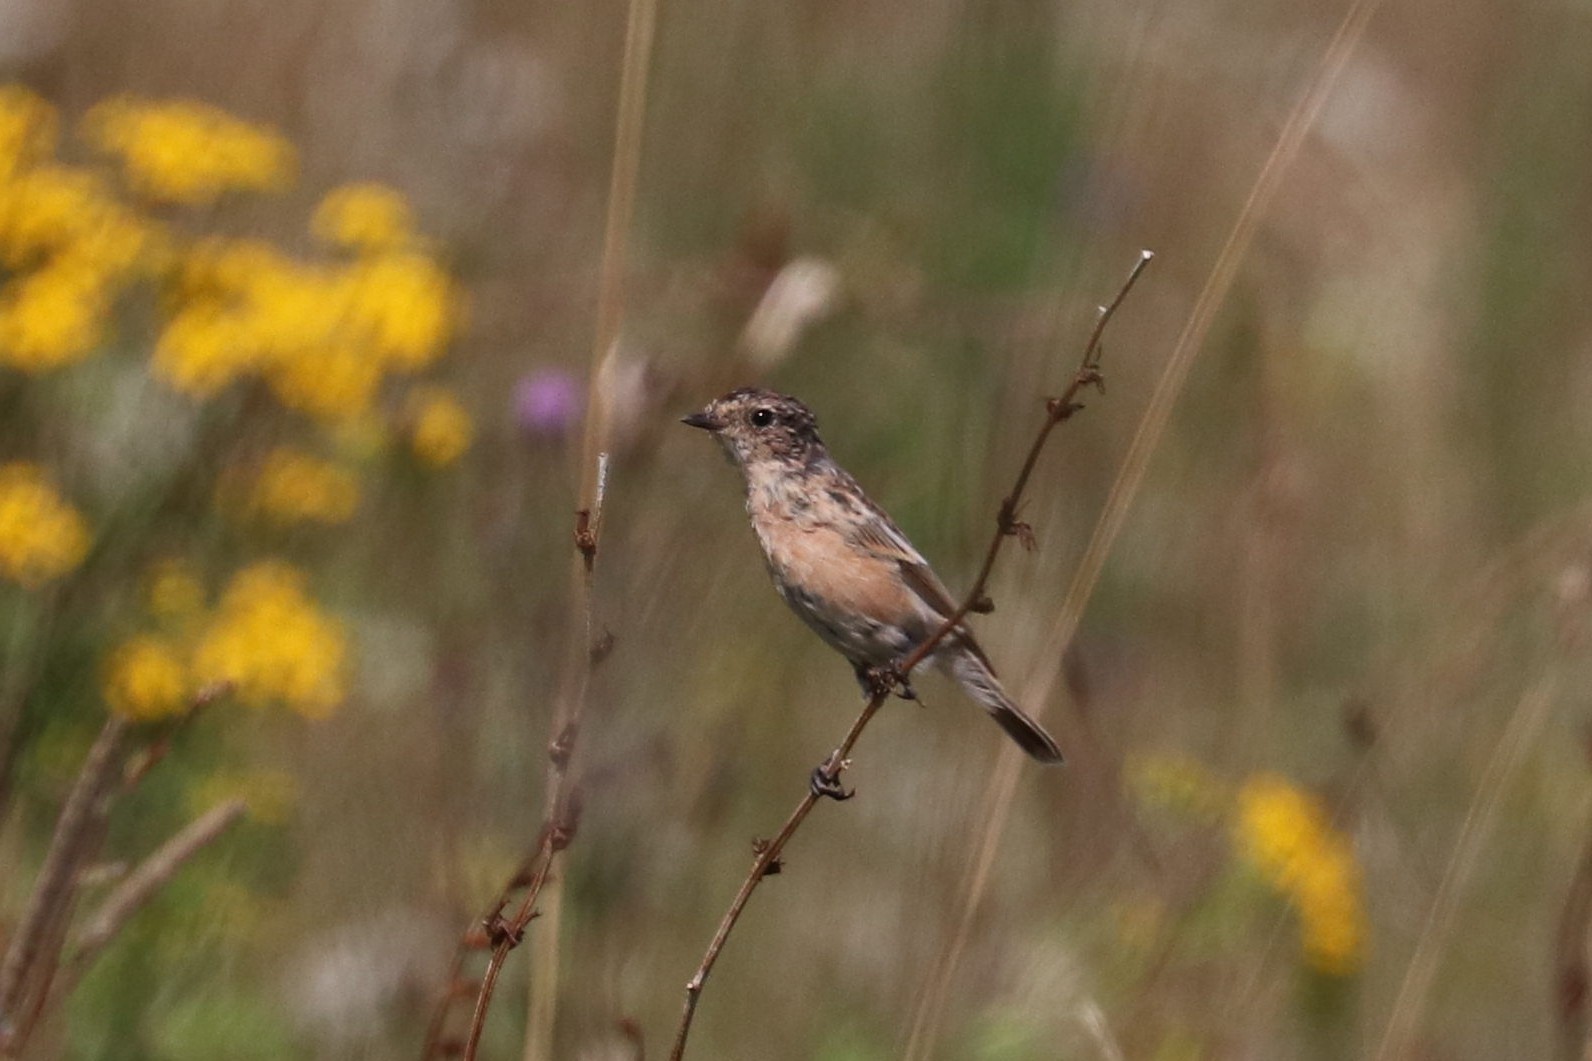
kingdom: Animalia
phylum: Chordata
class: Aves
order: Passeriformes
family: Muscicapidae
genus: Saxicola
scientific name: Saxicola maurus
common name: Siberian stonechat
